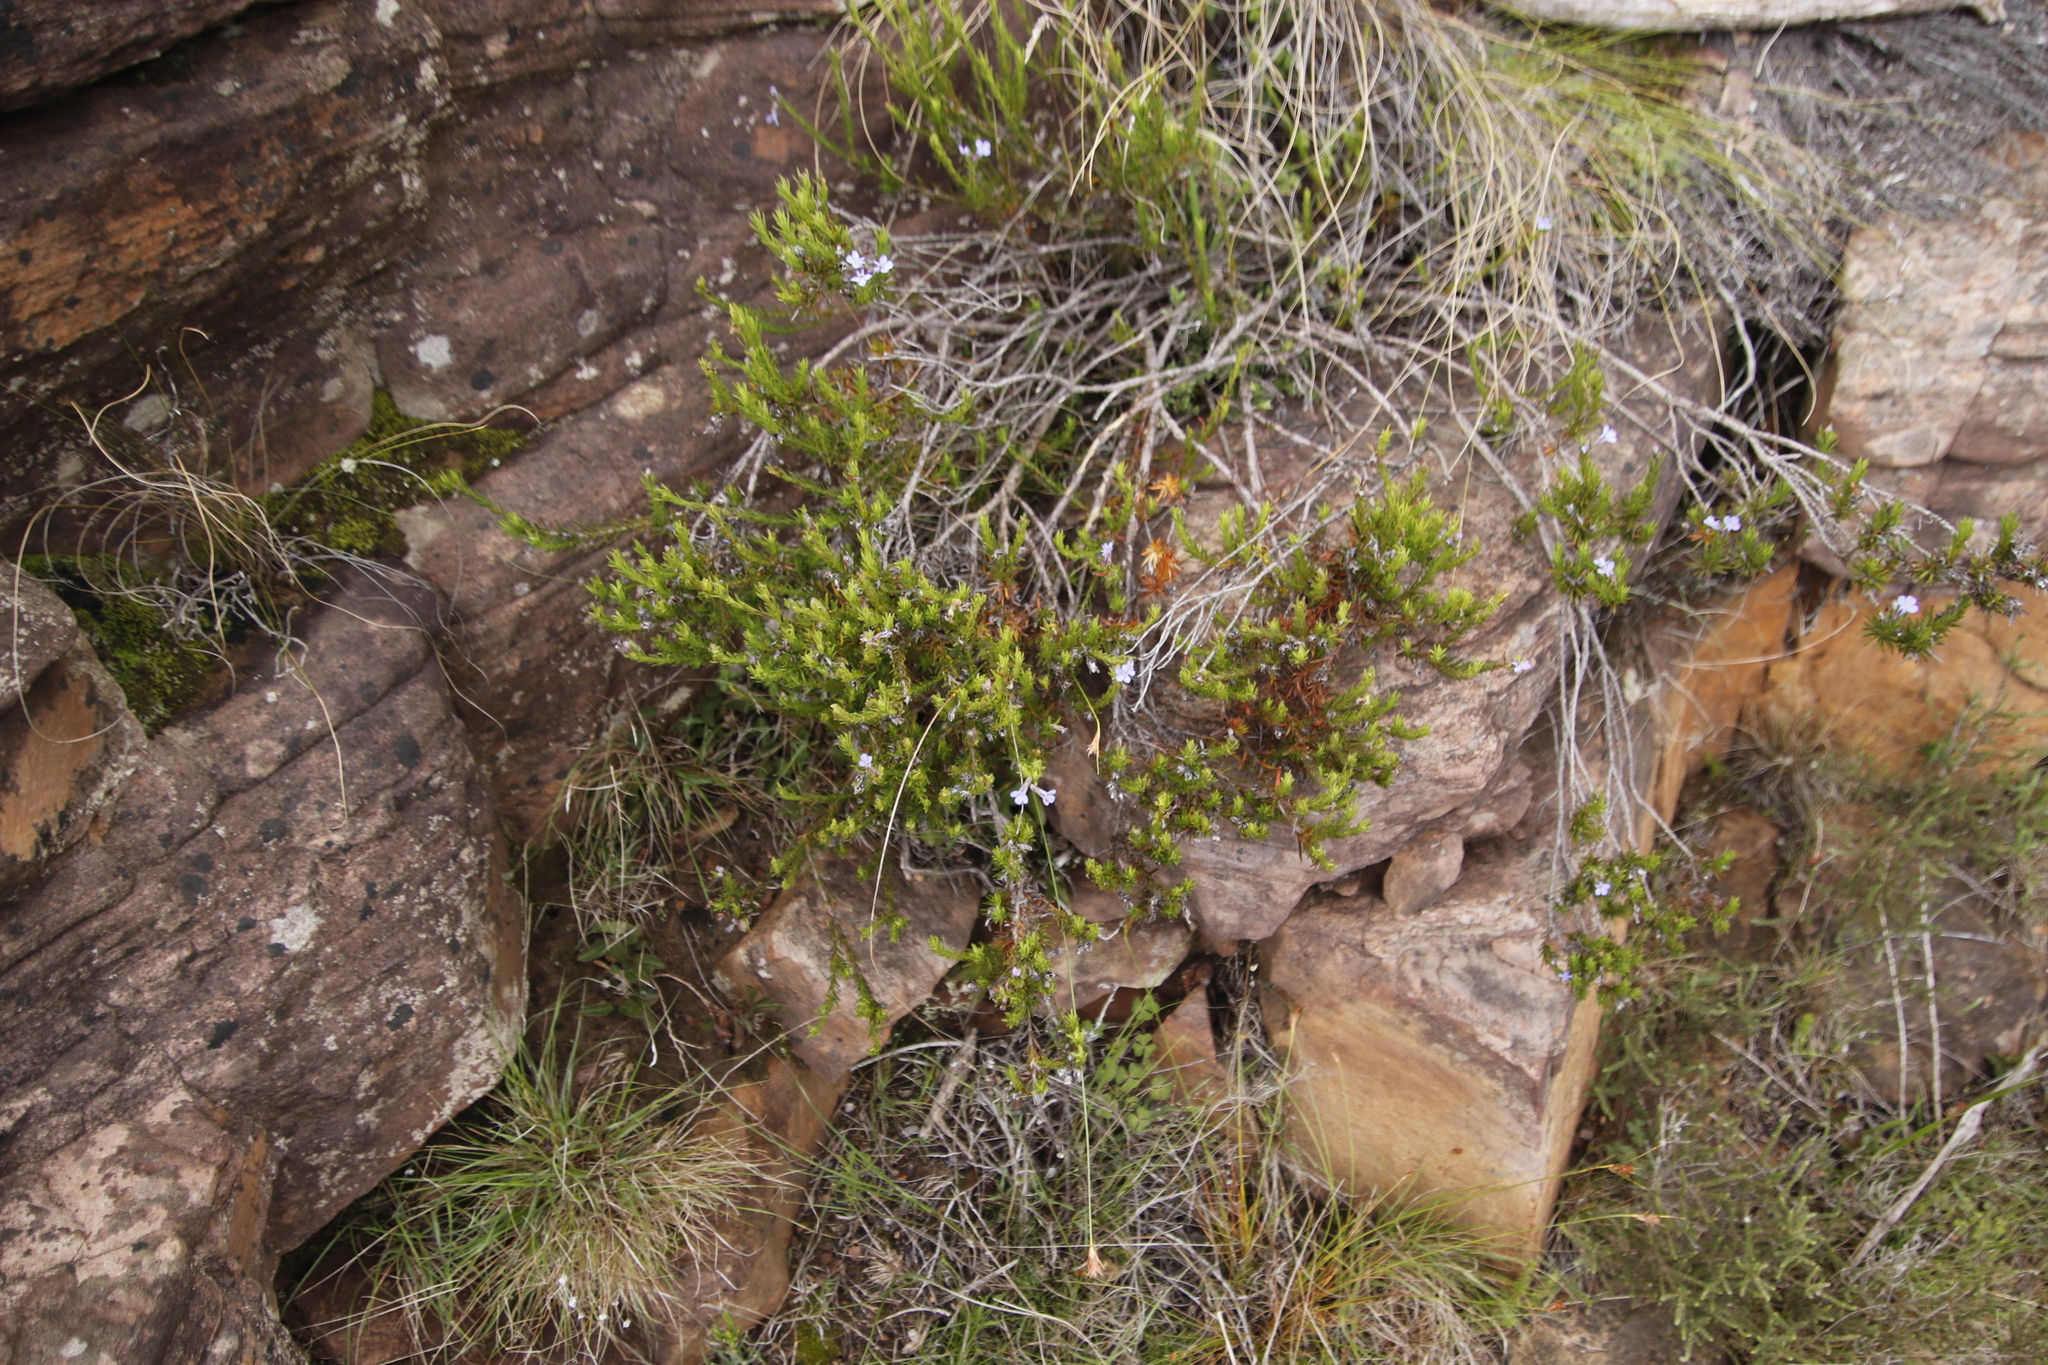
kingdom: Plantae
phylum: Tracheophyta
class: Magnoliopsida
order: Asterales
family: Campanulaceae
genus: Lobelia
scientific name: Lobelia pinifolia
